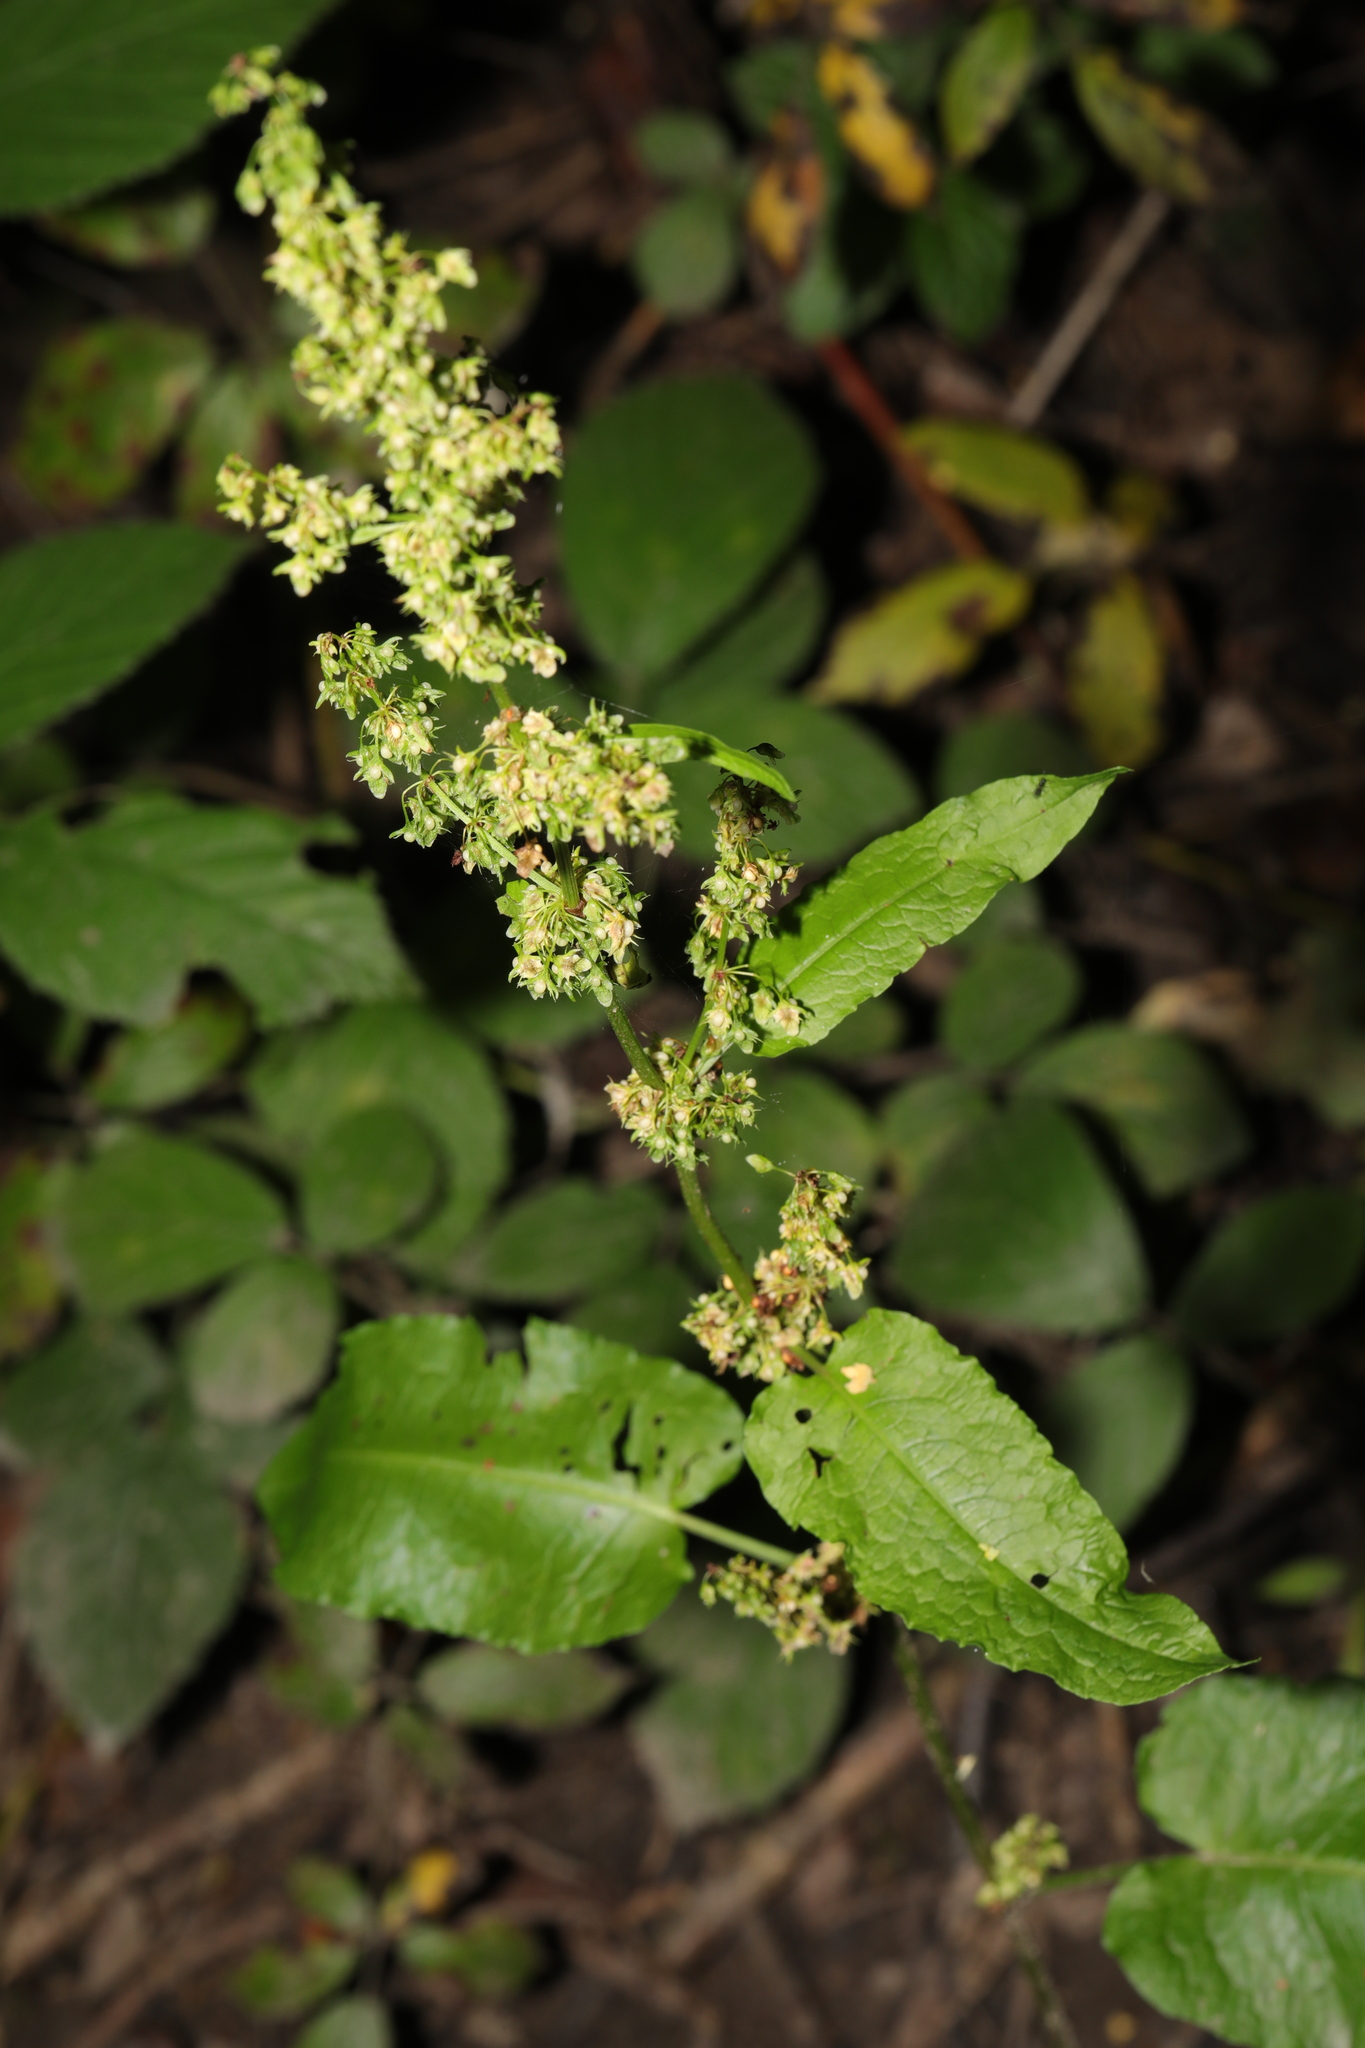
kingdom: Plantae
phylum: Tracheophyta
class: Magnoliopsida
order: Caryophyllales
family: Polygonaceae
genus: Rumex
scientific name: Rumex obtusifolius
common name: Bitter dock
